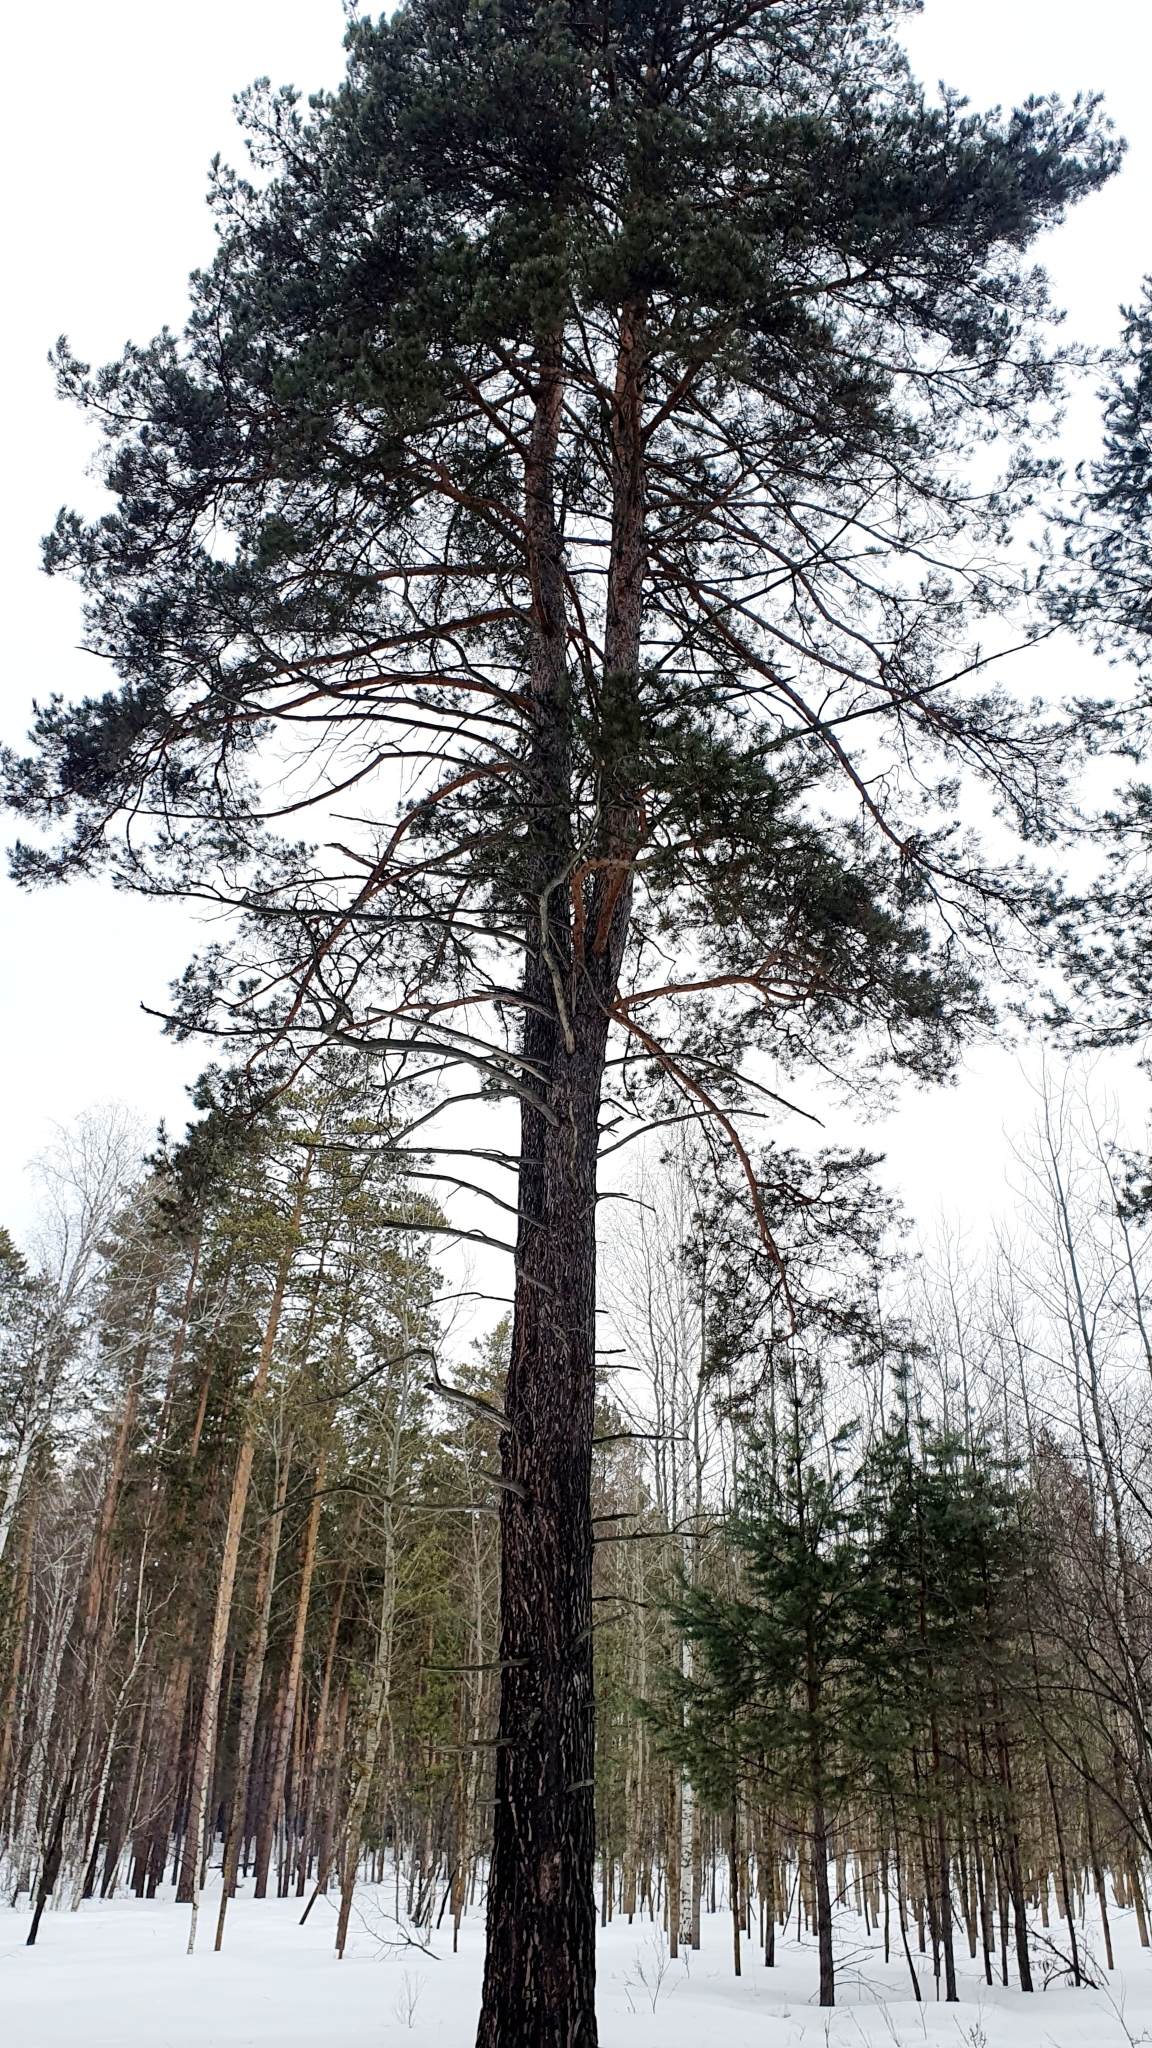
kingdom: Plantae
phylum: Tracheophyta
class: Pinopsida
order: Pinales
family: Pinaceae
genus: Pinus
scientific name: Pinus sylvestris
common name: Scots pine
